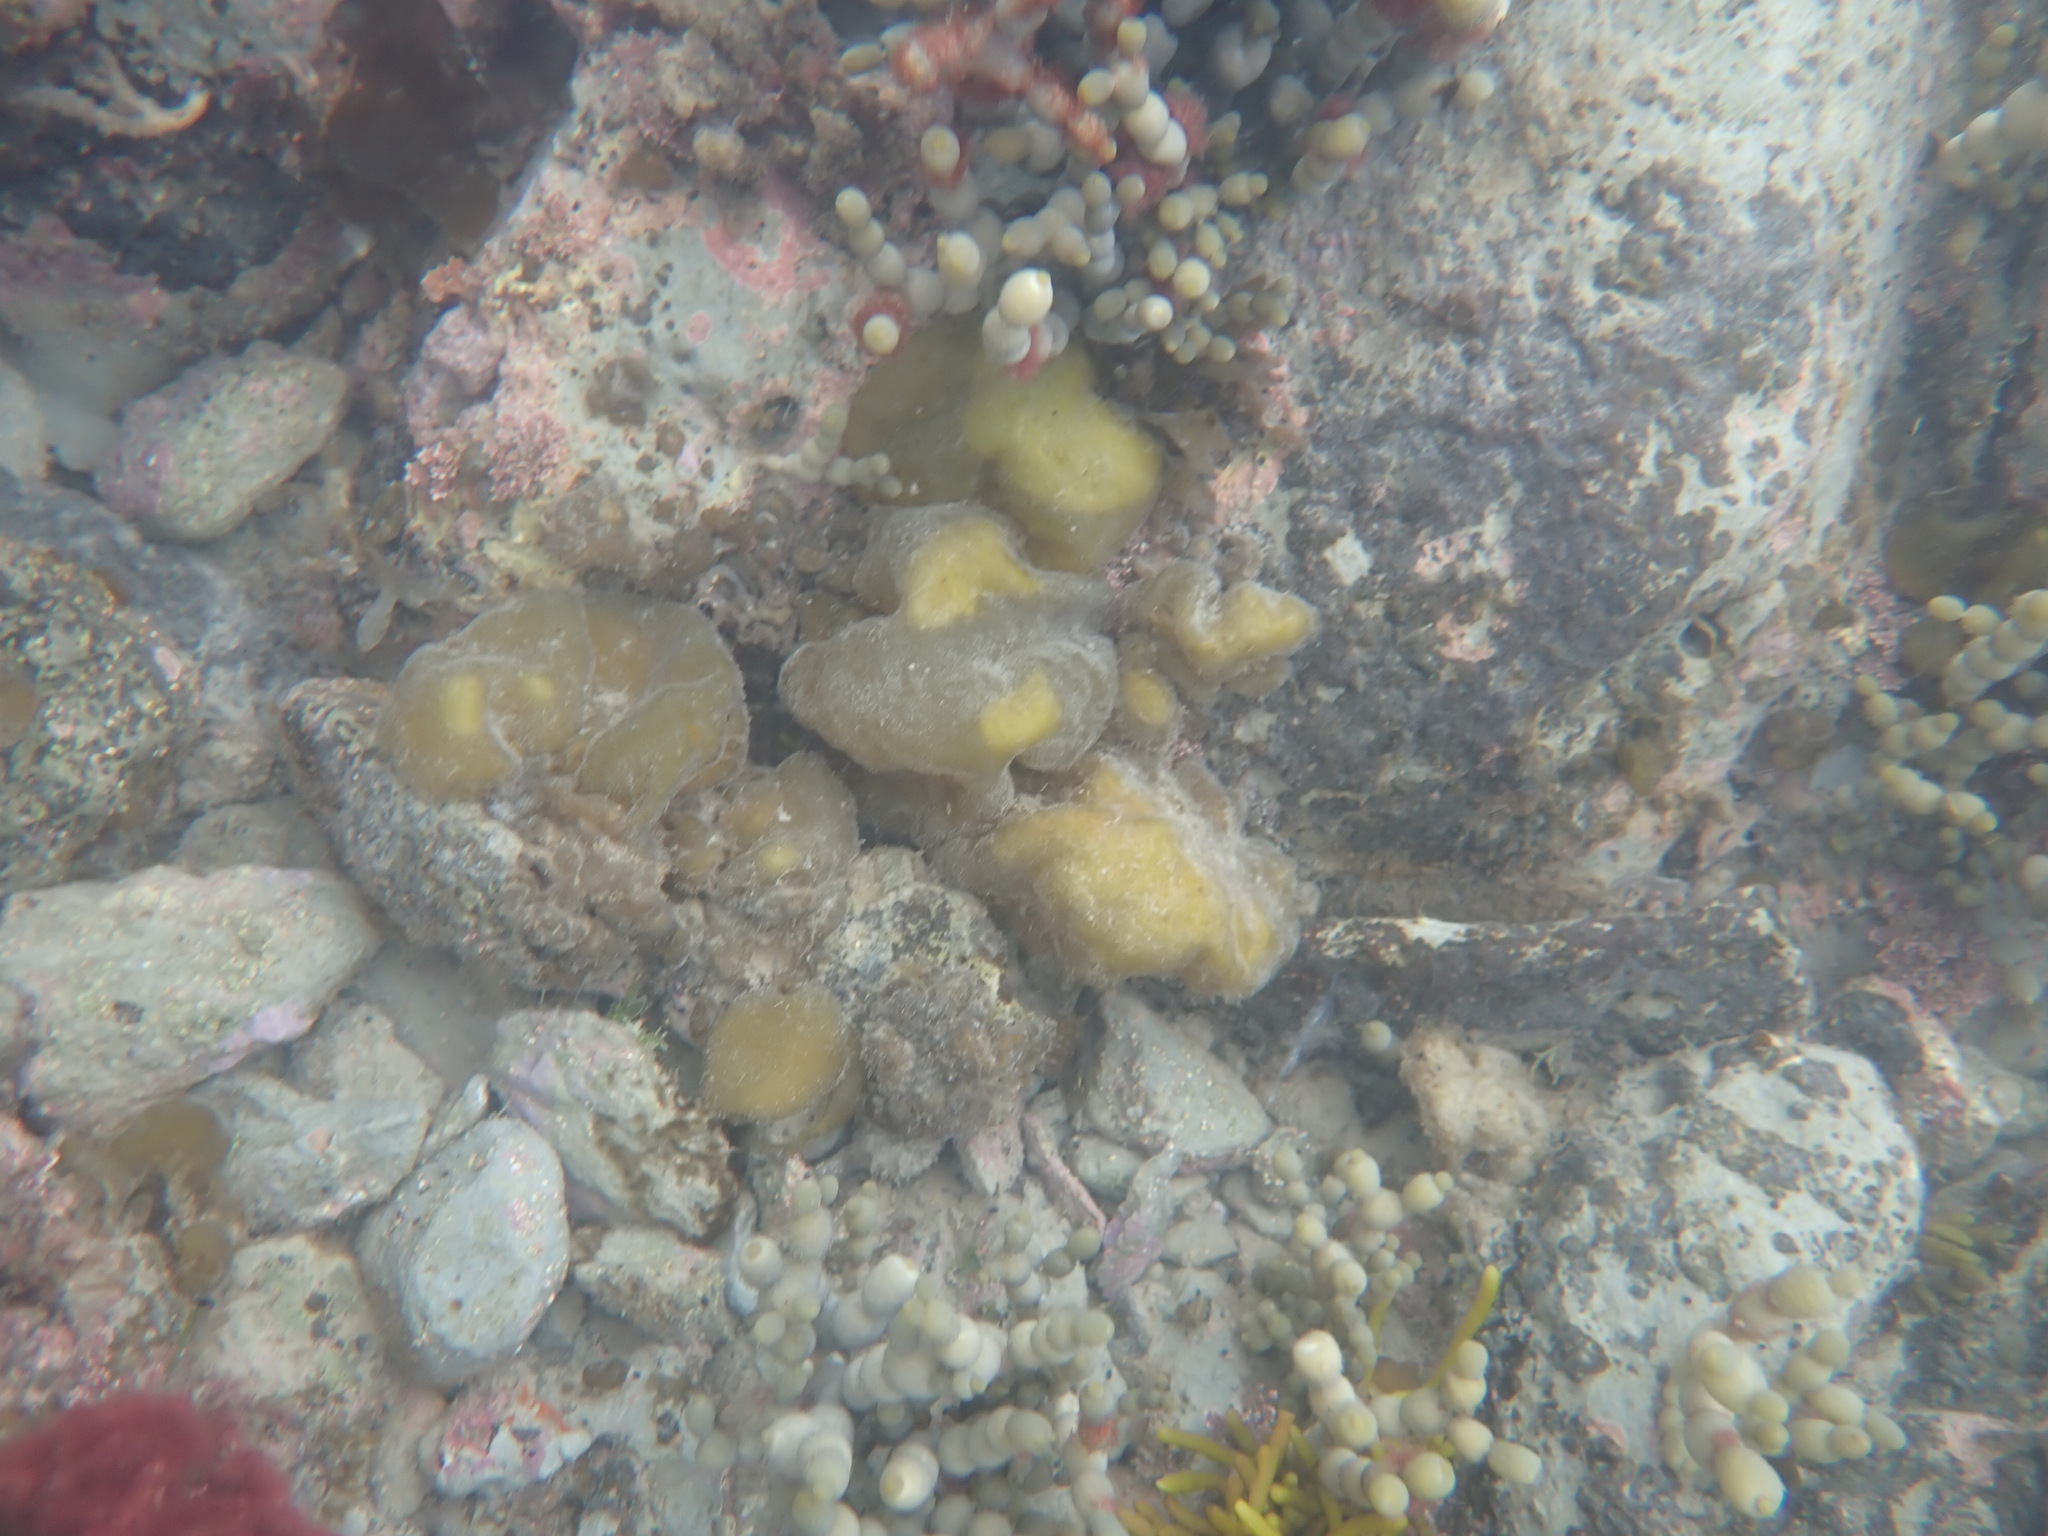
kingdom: Chromista
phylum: Ochrophyta
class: Phaeophyceae
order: Scytosiphonales
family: Scytosiphonaceae
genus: Colpomenia
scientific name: Colpomenia sinuosa
